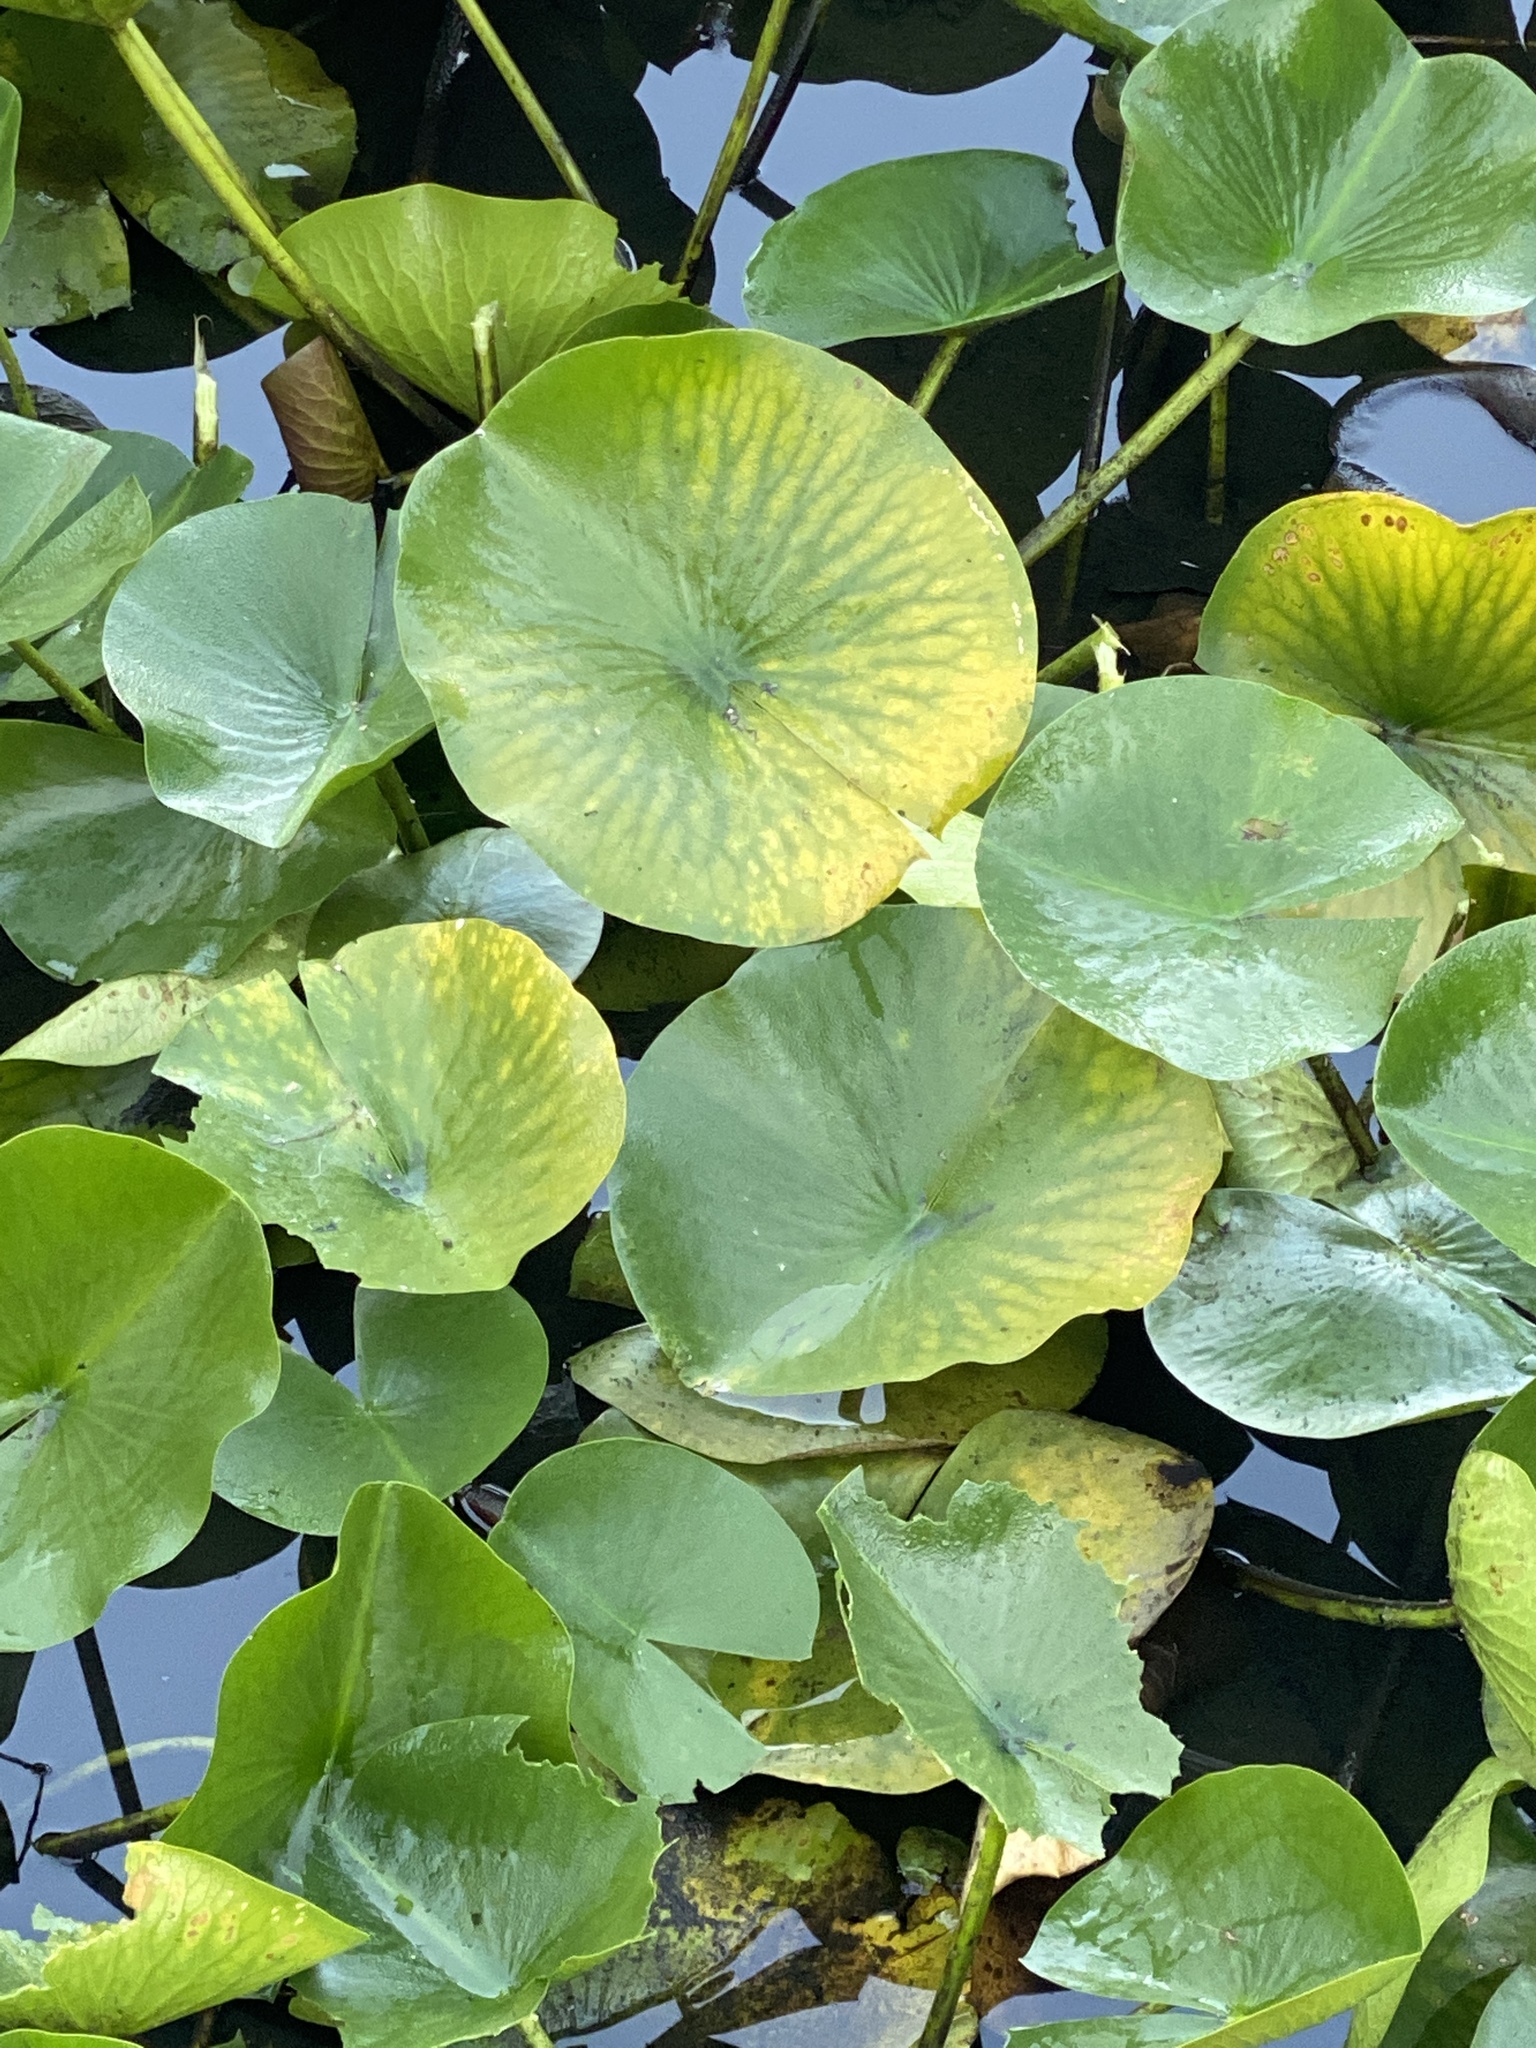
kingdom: Plantae
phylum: Tracheophyta
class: Magnoliopsida
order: Nymphaeales
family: Nymphaeaceae
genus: Nymphaea
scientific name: Nymphaea odorata
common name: Fragrant water-lily
